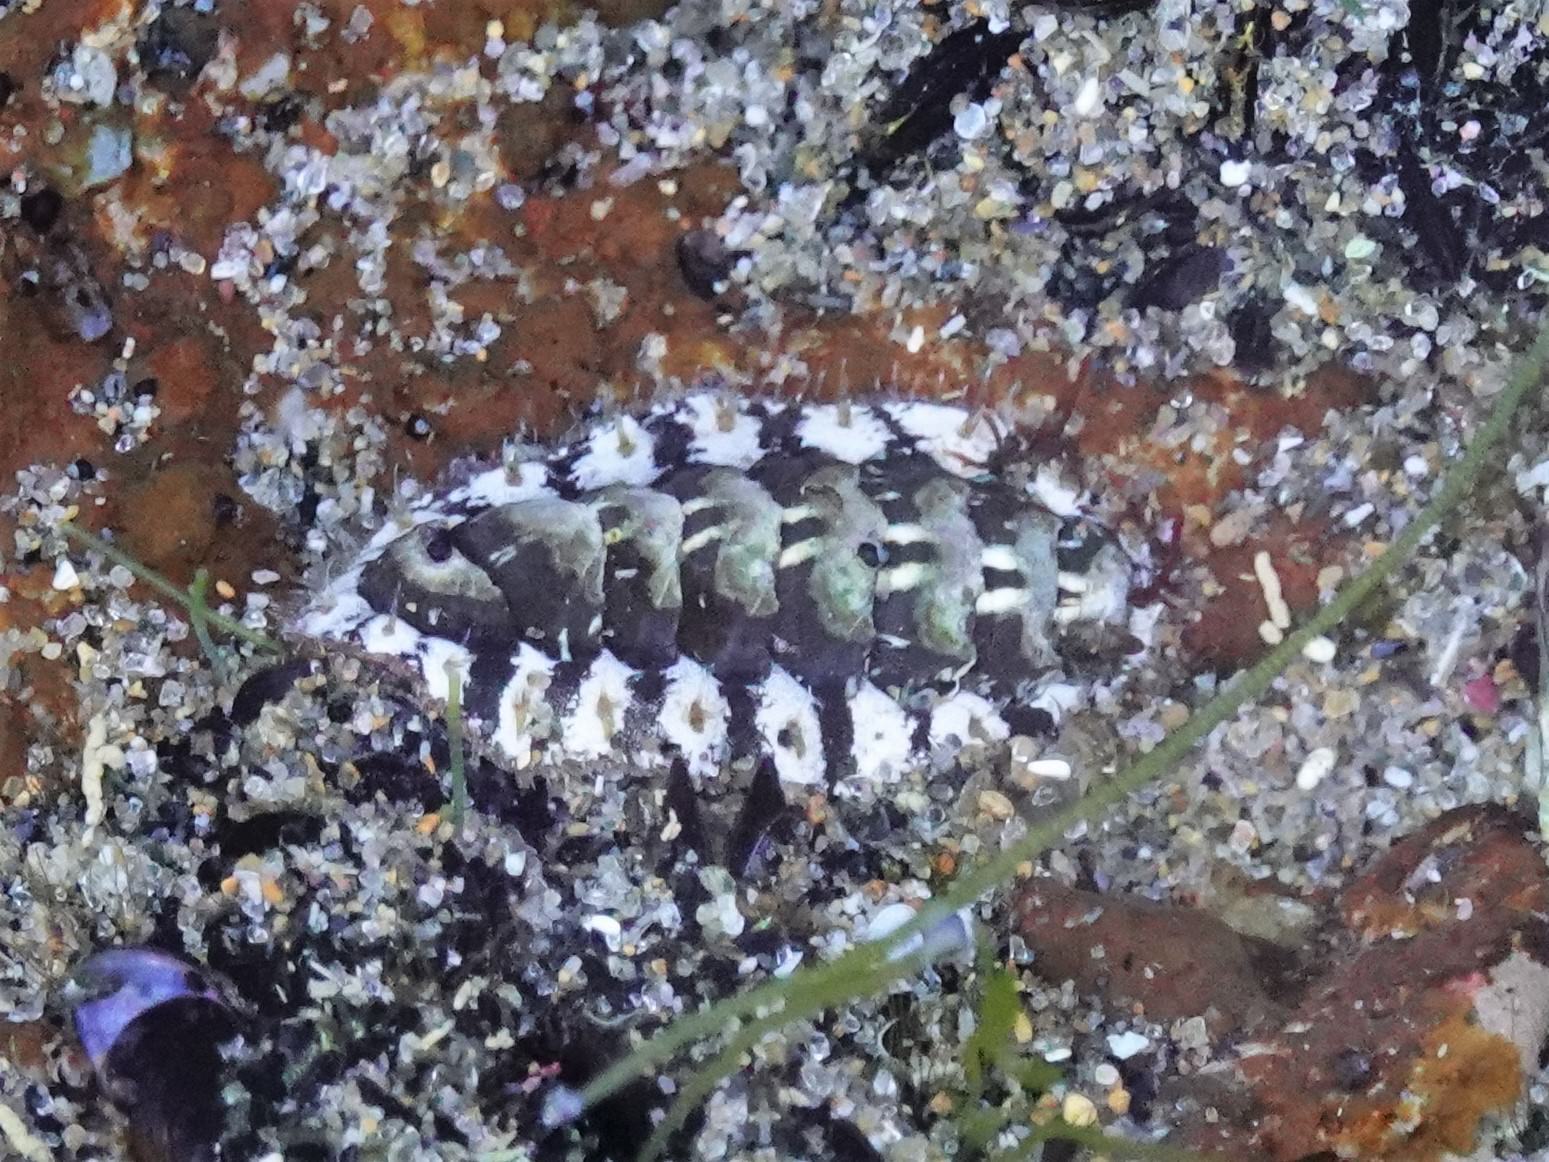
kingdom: Animalia
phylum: Mollusca
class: Polyplacophora
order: Chitonida
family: Mopaliidae
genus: Plaxiphora
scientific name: Plaxiphora caelata
